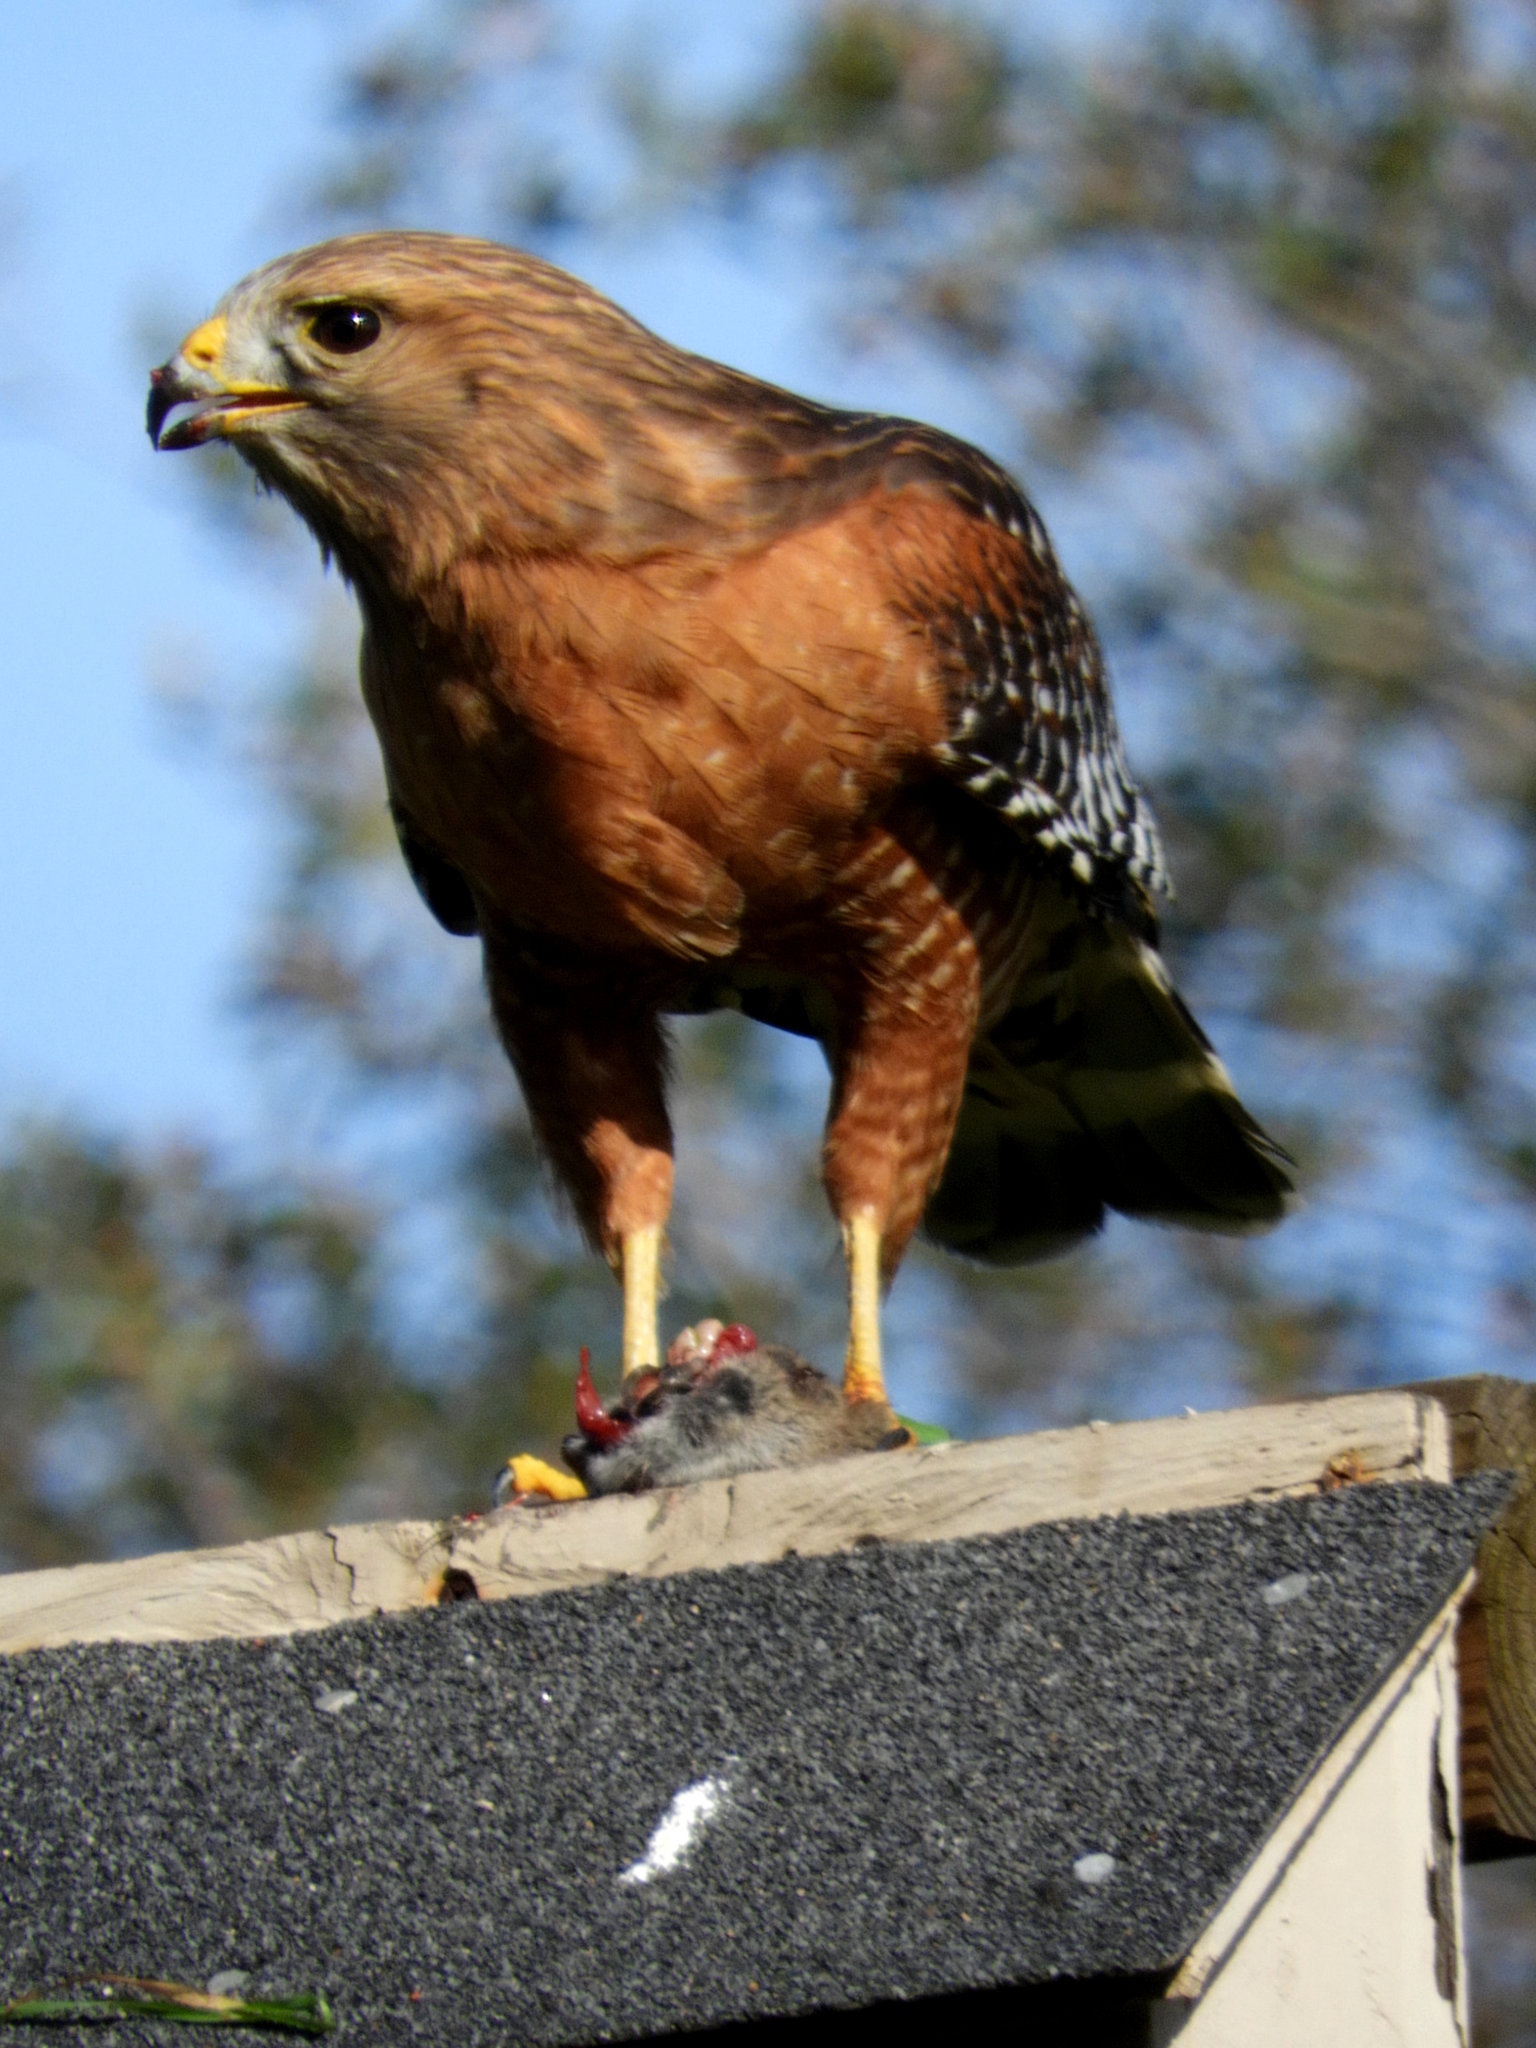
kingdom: Animalia
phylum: Chordata
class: Aves
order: Accipitriformes
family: Accipitridae
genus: Buteo
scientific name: Buteo lineatus
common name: Red-shouldered hawk
